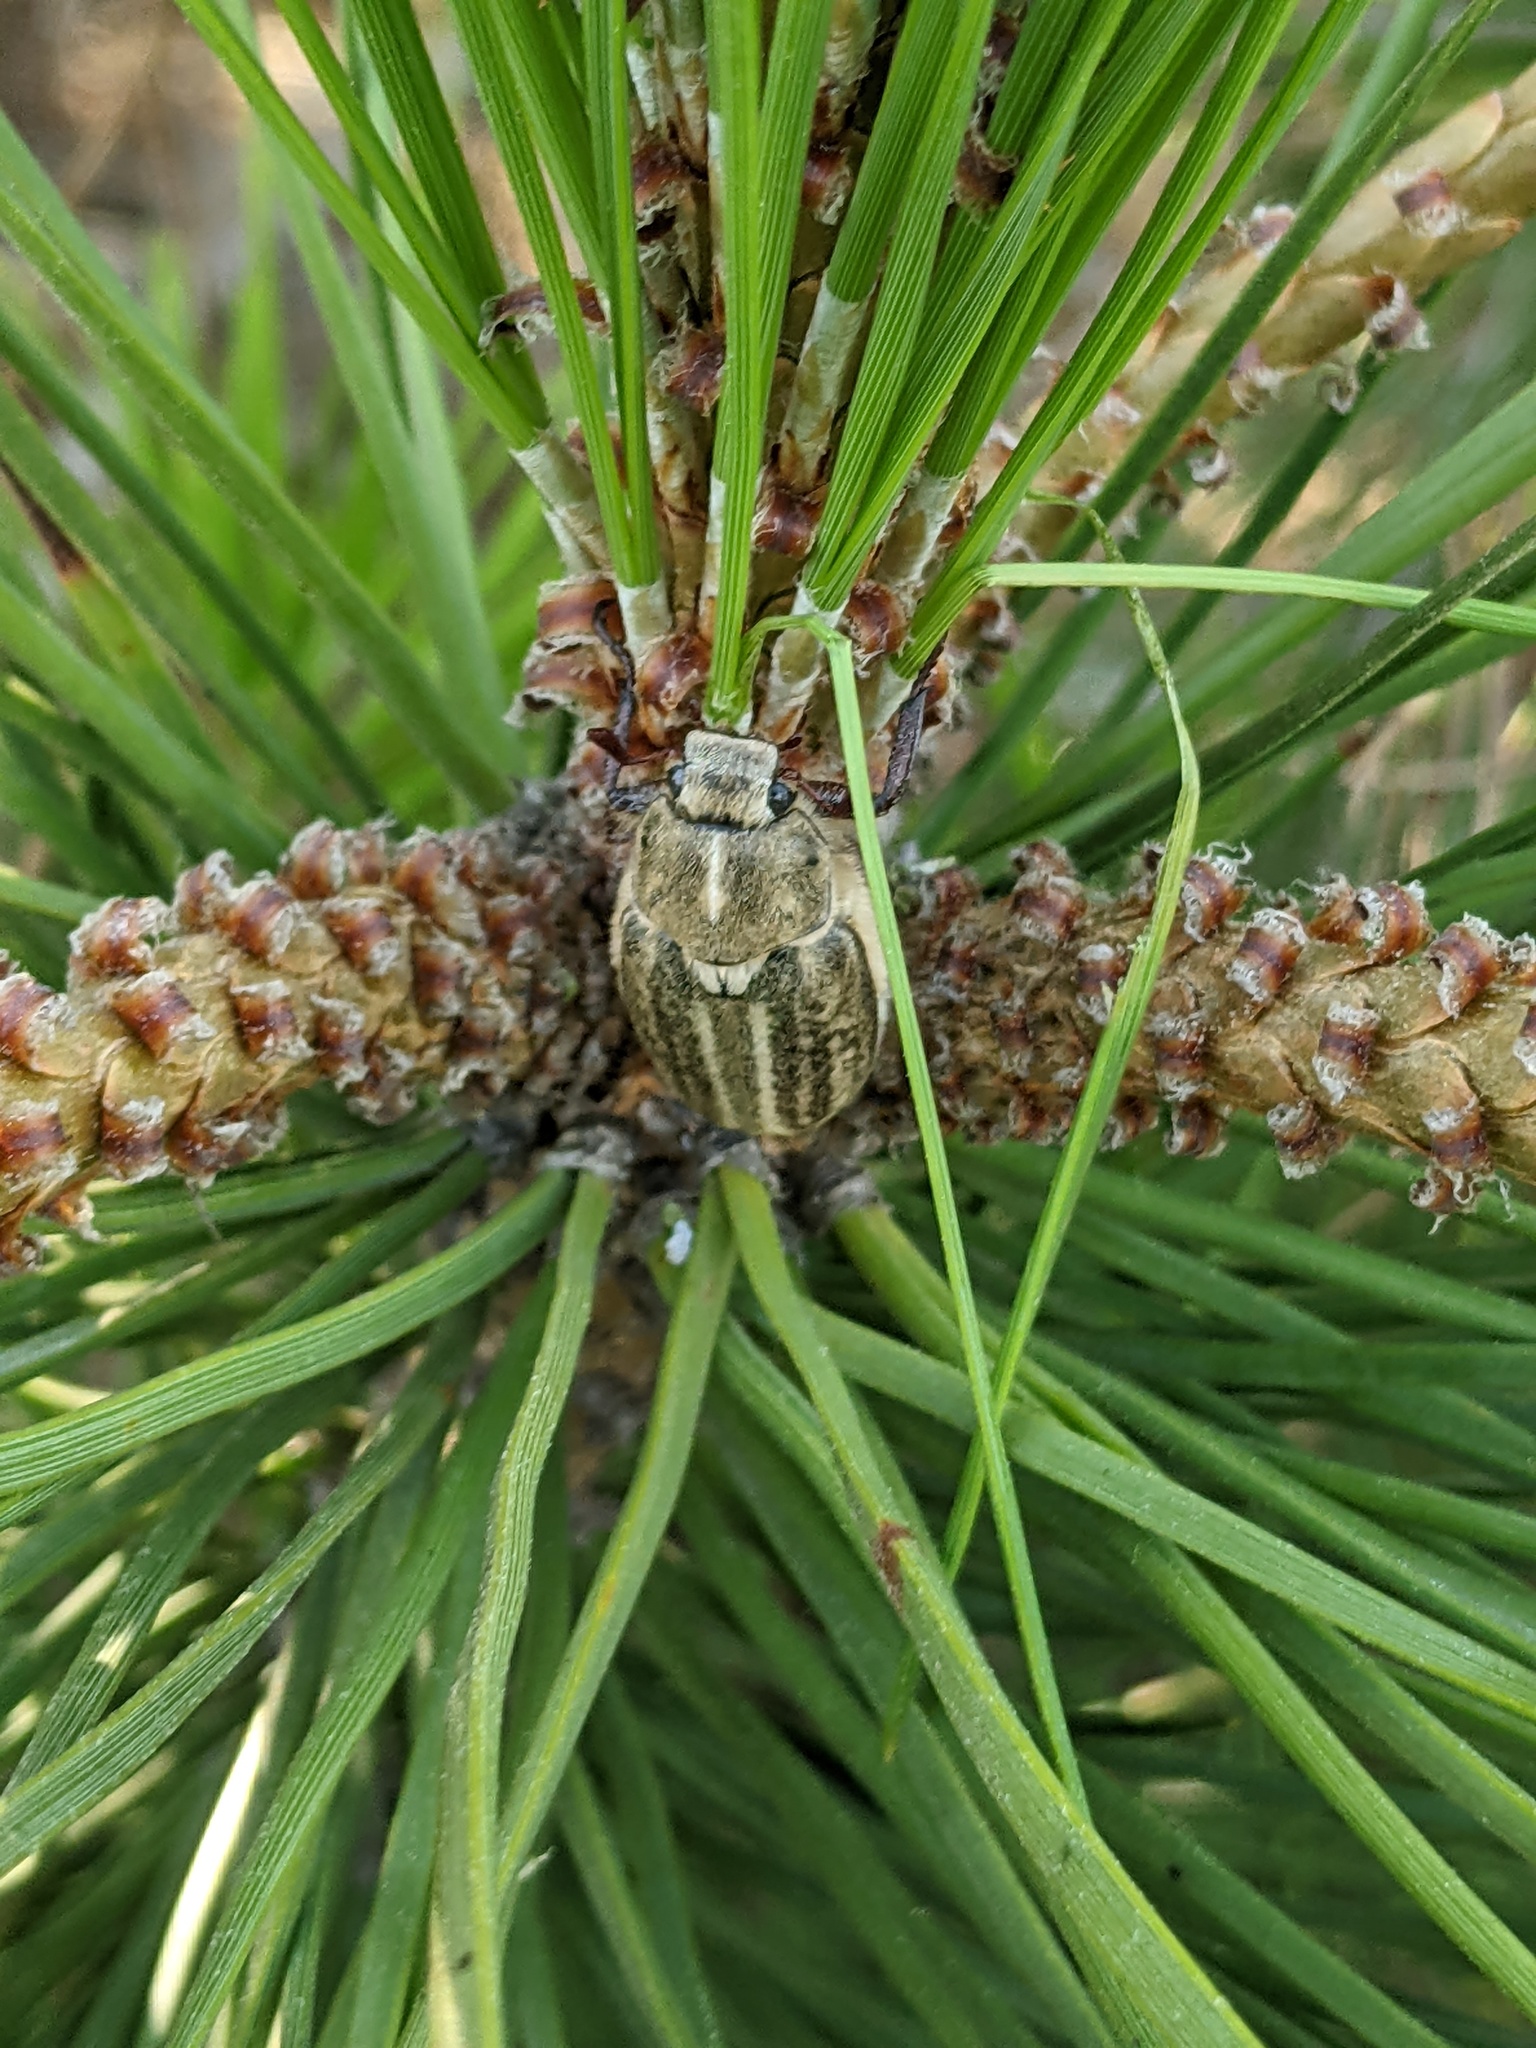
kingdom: Animalia
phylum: Arthropoda
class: Insecta
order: Coleoptera
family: Scarabaeidae
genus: Anoxia
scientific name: Anoxia australis
